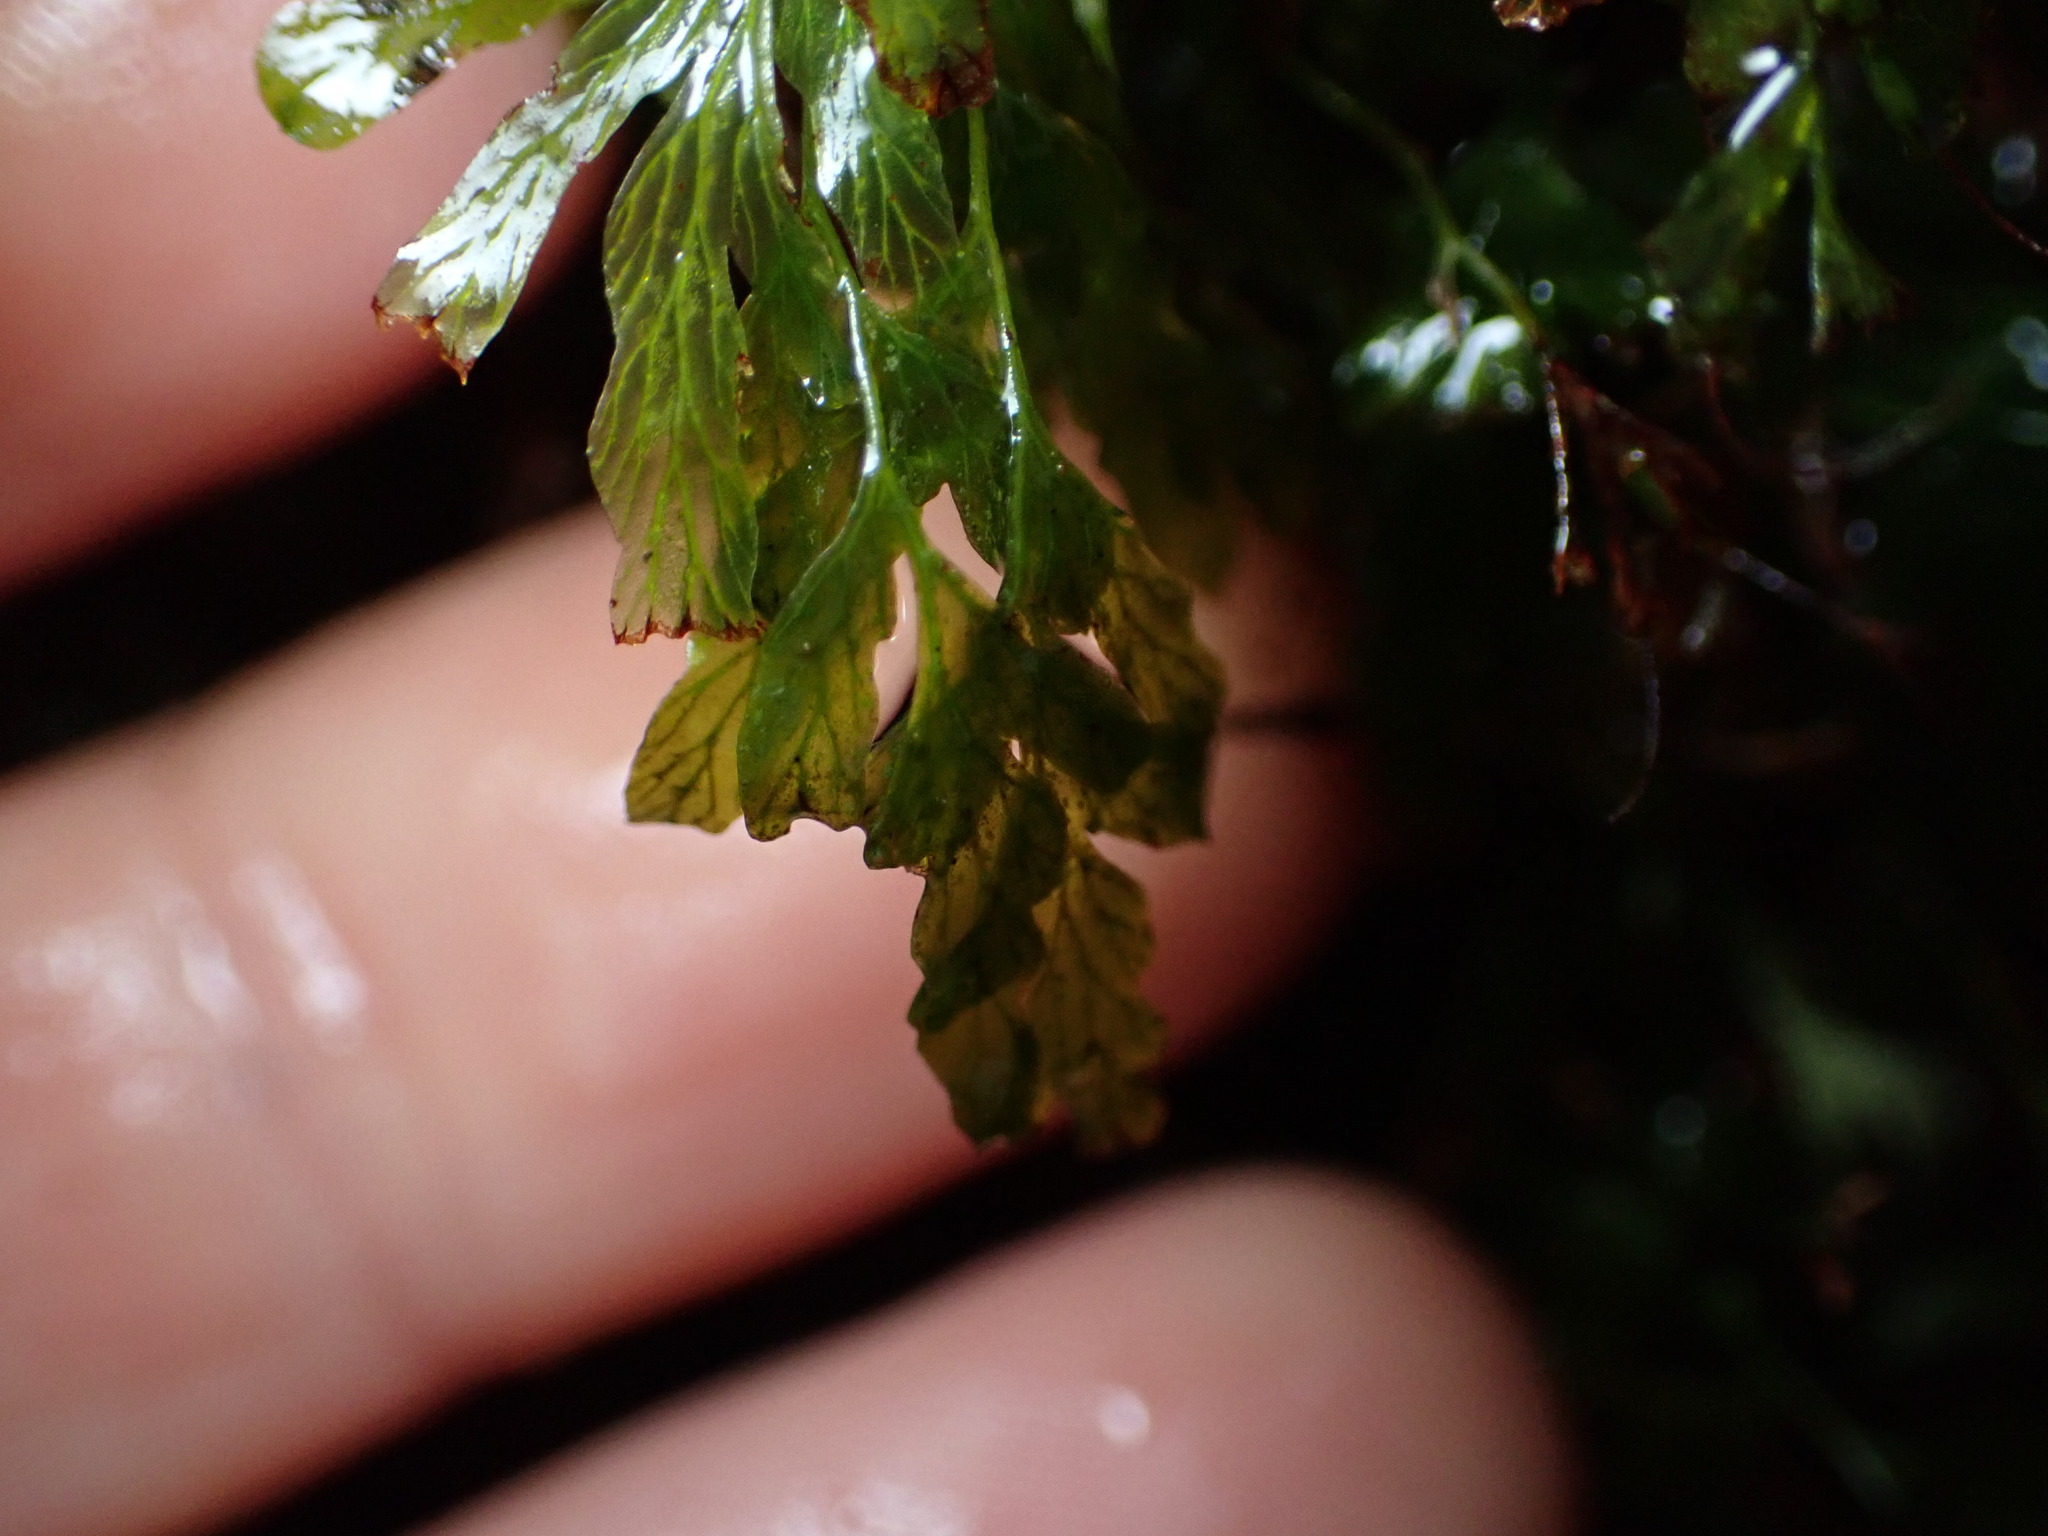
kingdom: Plantae
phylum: Tracheophyta
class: Polypodiopsida
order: Hymenophyllales
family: Hymenophyllaceae
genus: Polyphlebium
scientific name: Polyphlebium venosum
